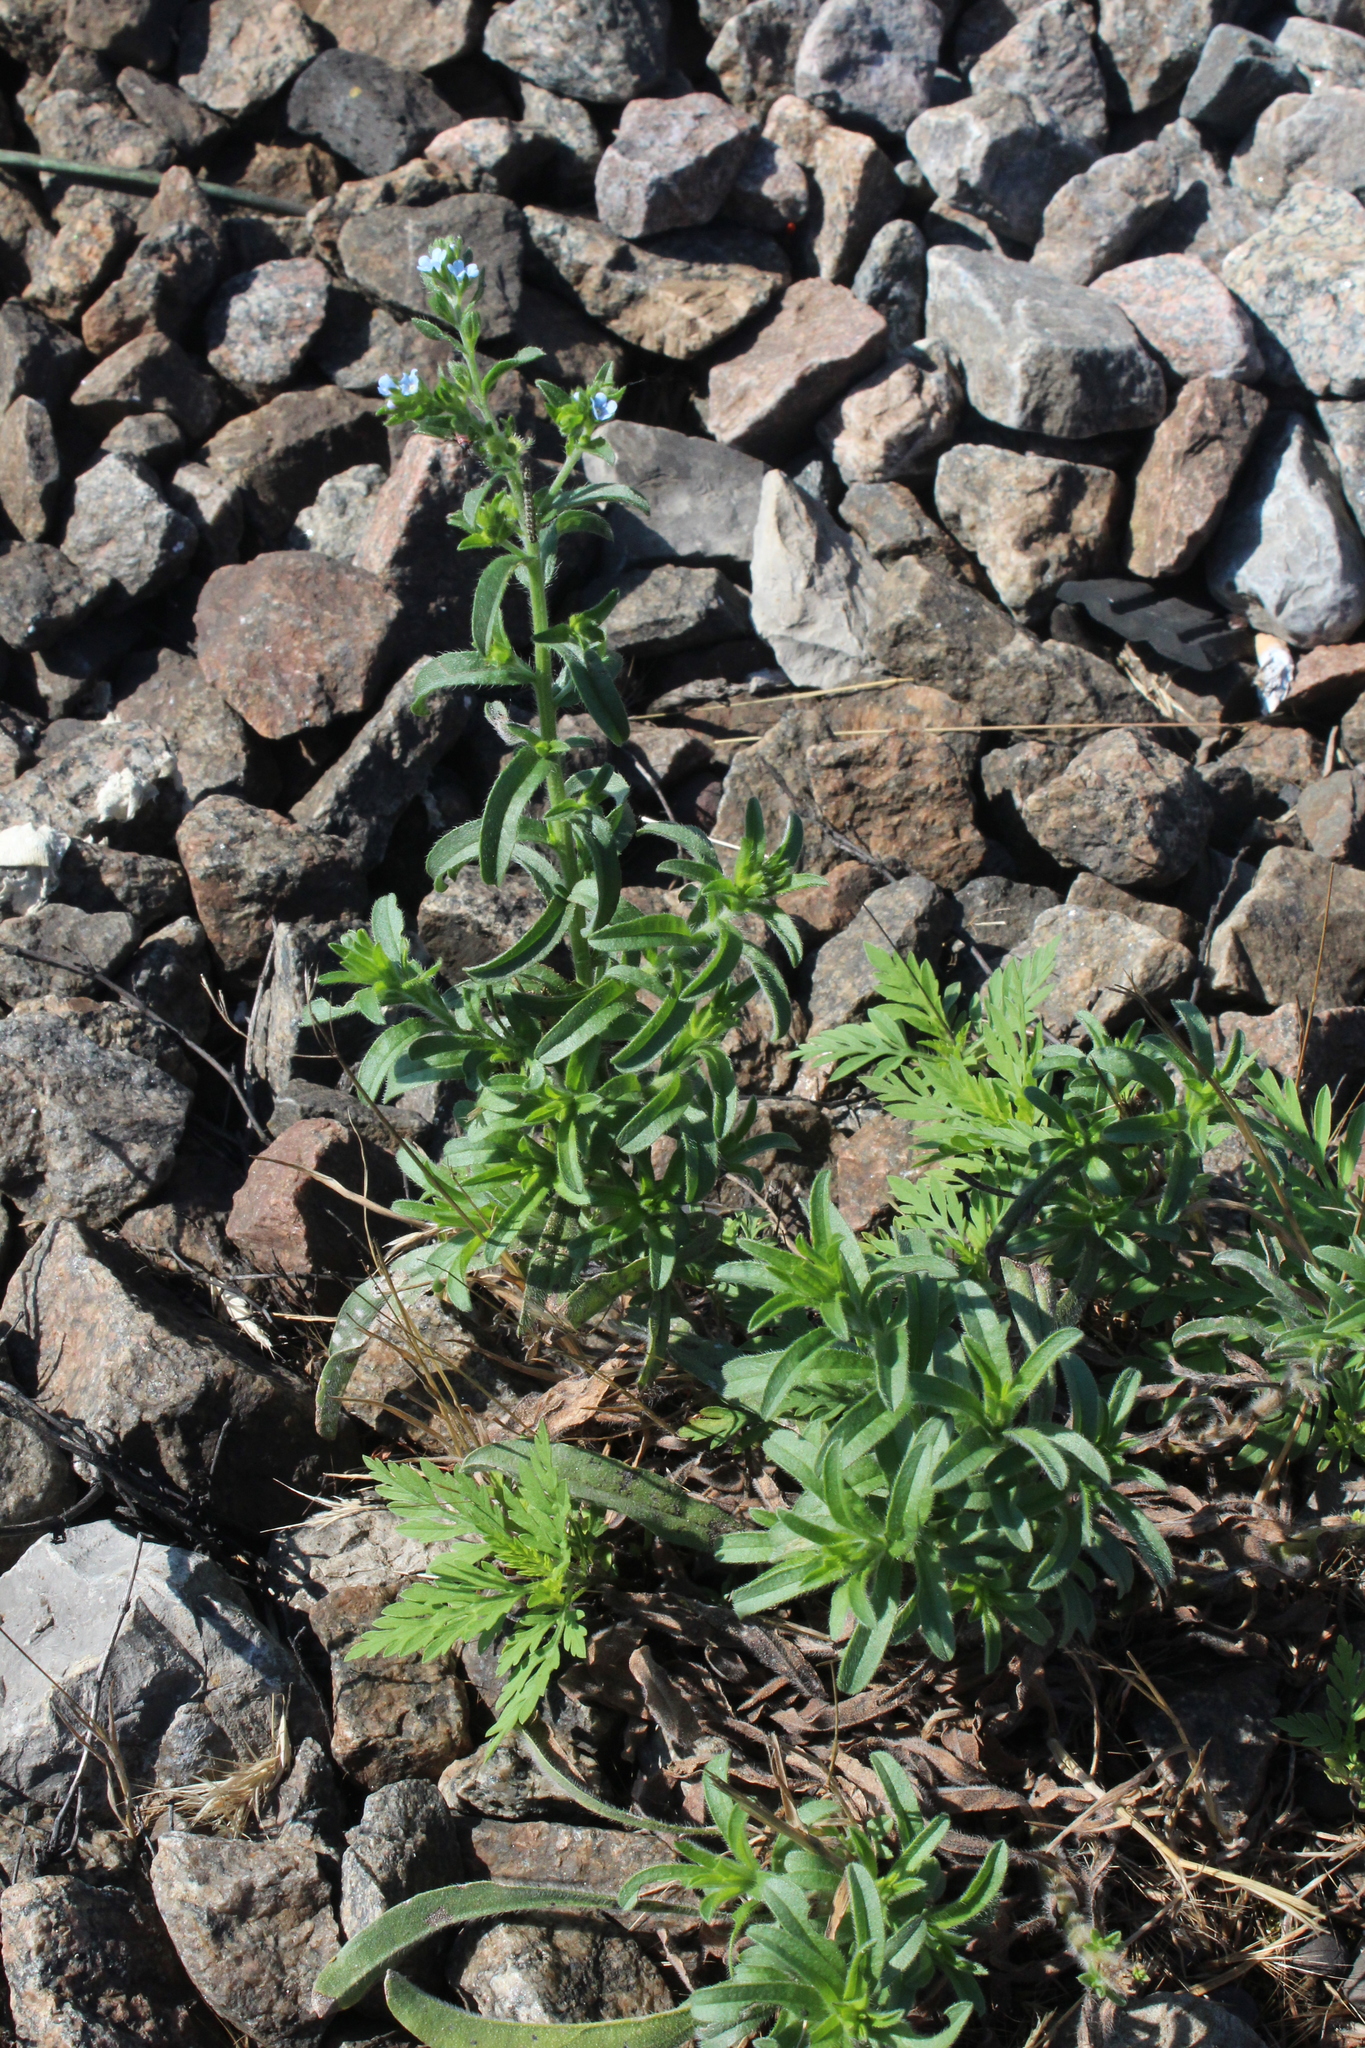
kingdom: Plantae
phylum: Tracheophyta
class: Magnoliopsida
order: Asterales
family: Asteraceae
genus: Ambrosia
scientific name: Ambrosia artemisiifolia
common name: Annual ragweed
